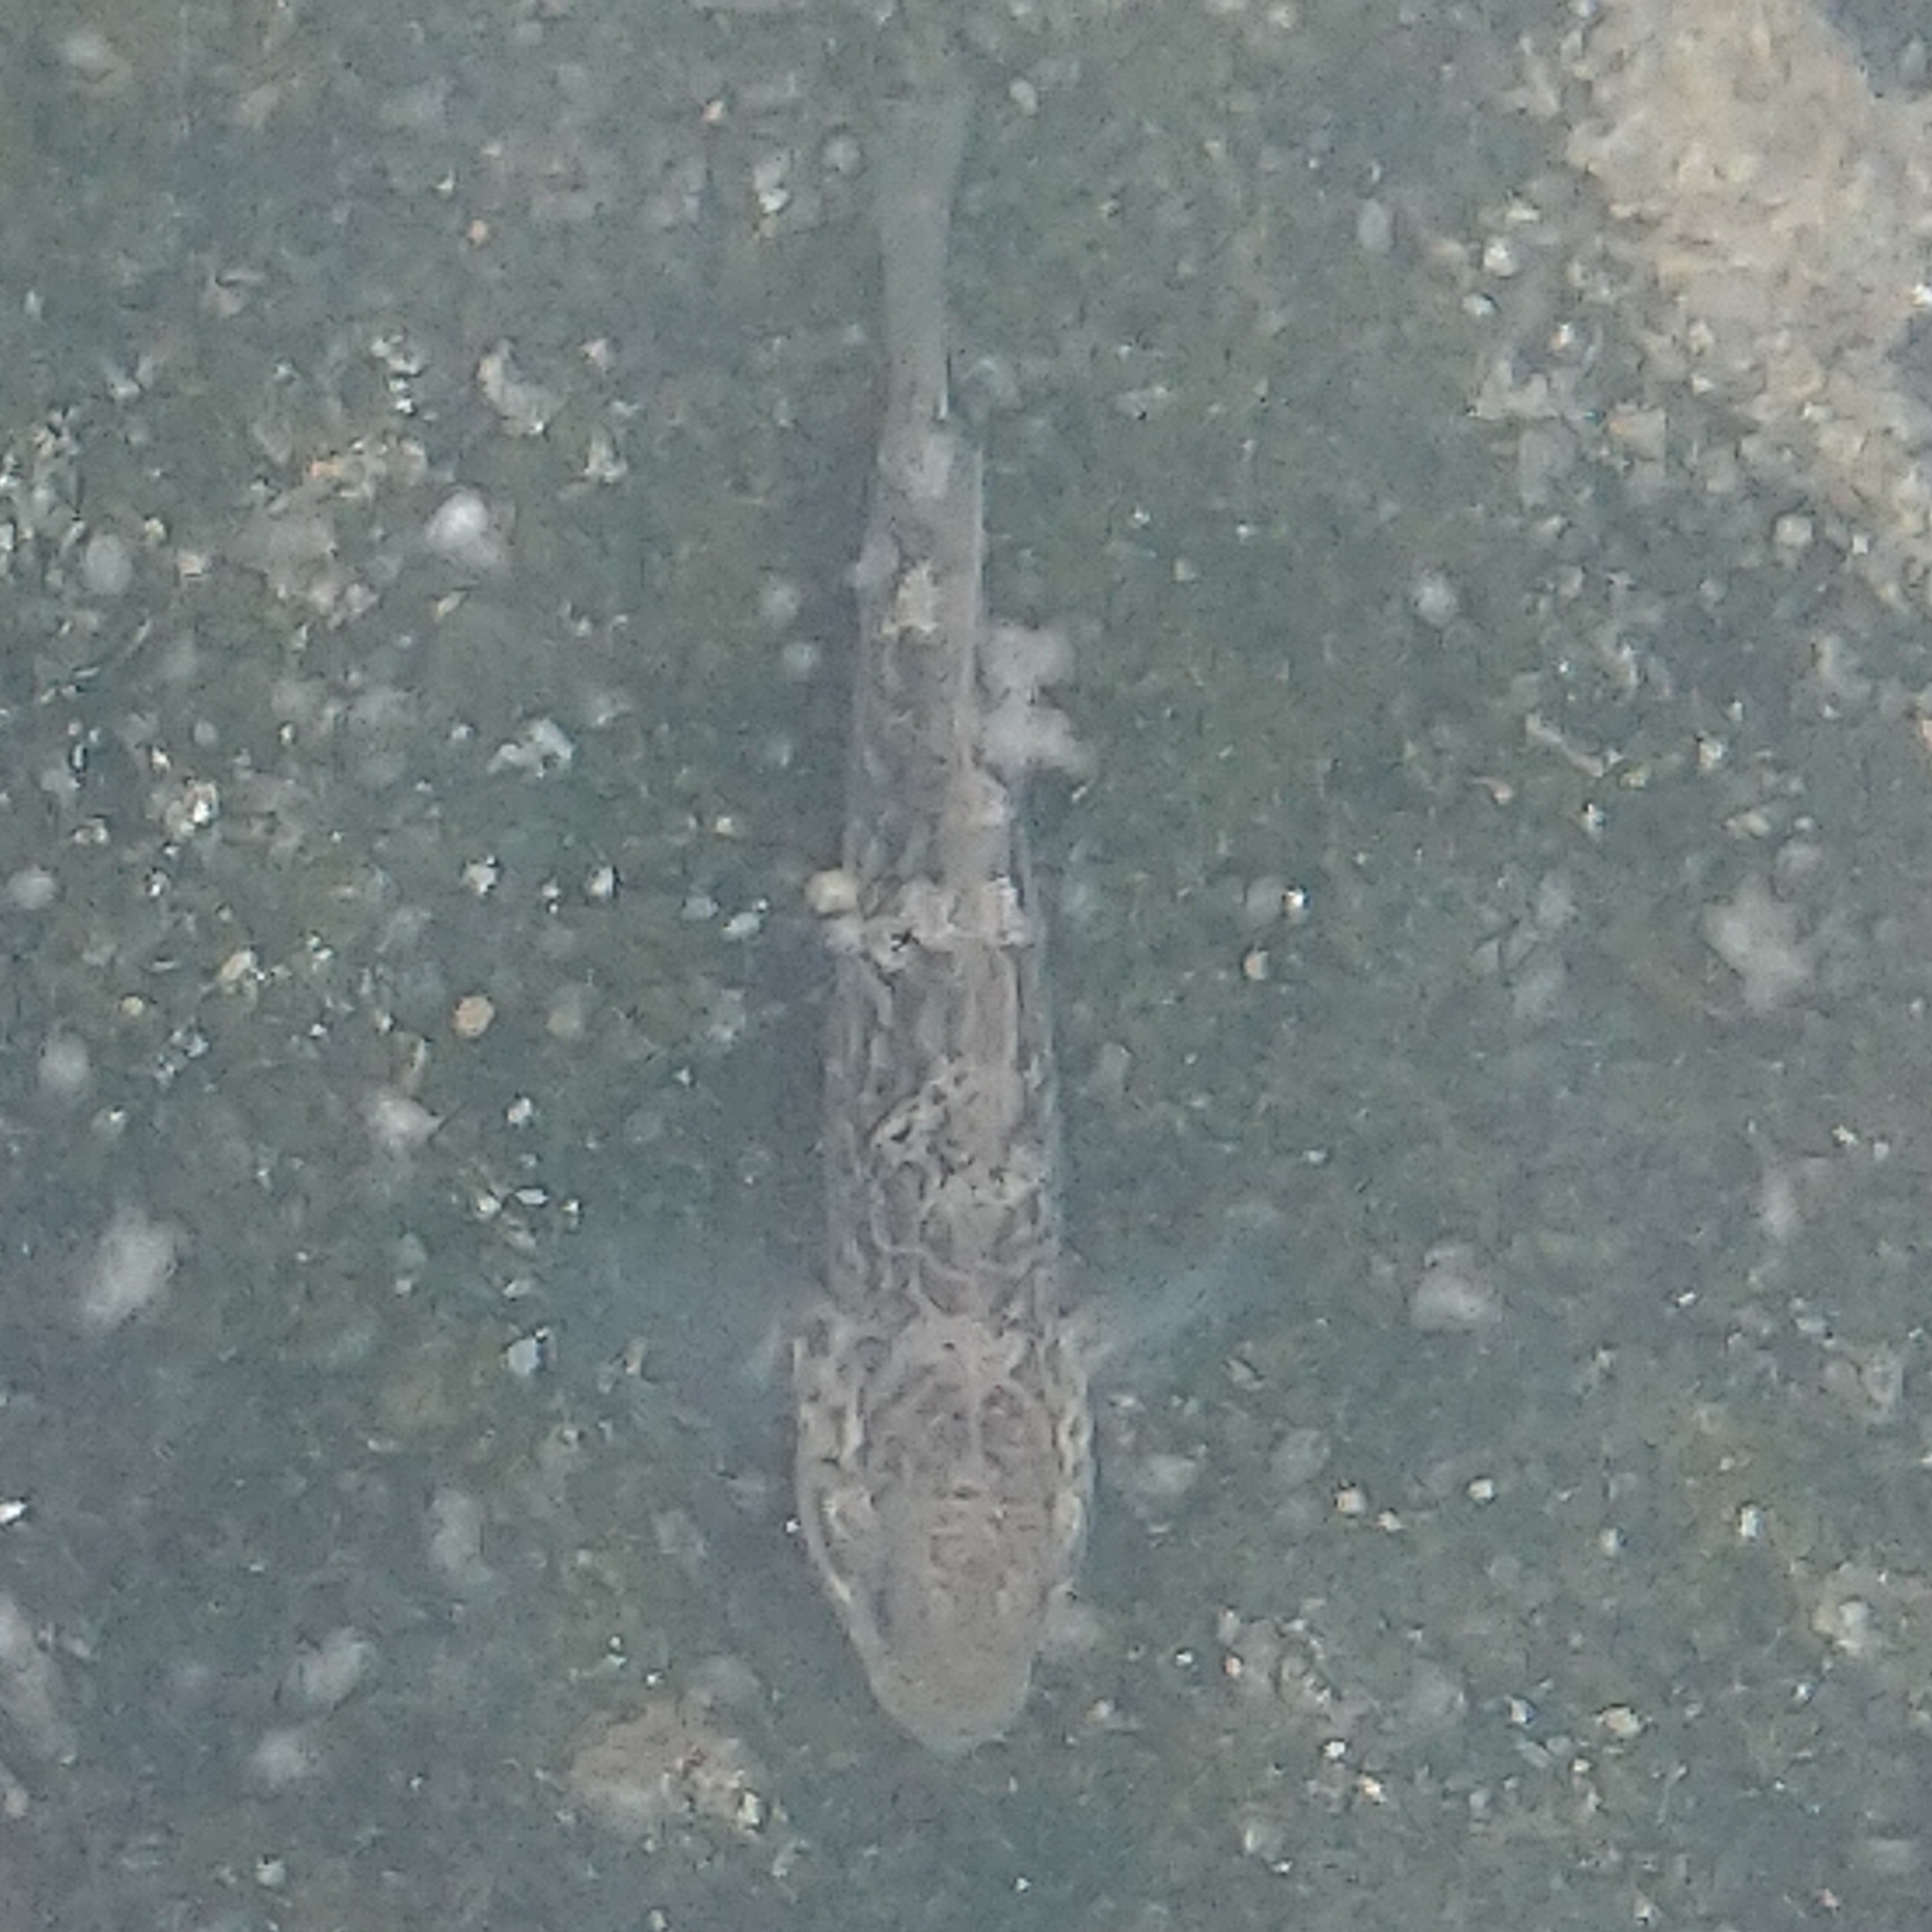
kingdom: Animalia
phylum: Chordata
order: Perciformes
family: Gobiidae
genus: Caffrogobius
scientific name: Caffrogobius caffer
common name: Banded goby
